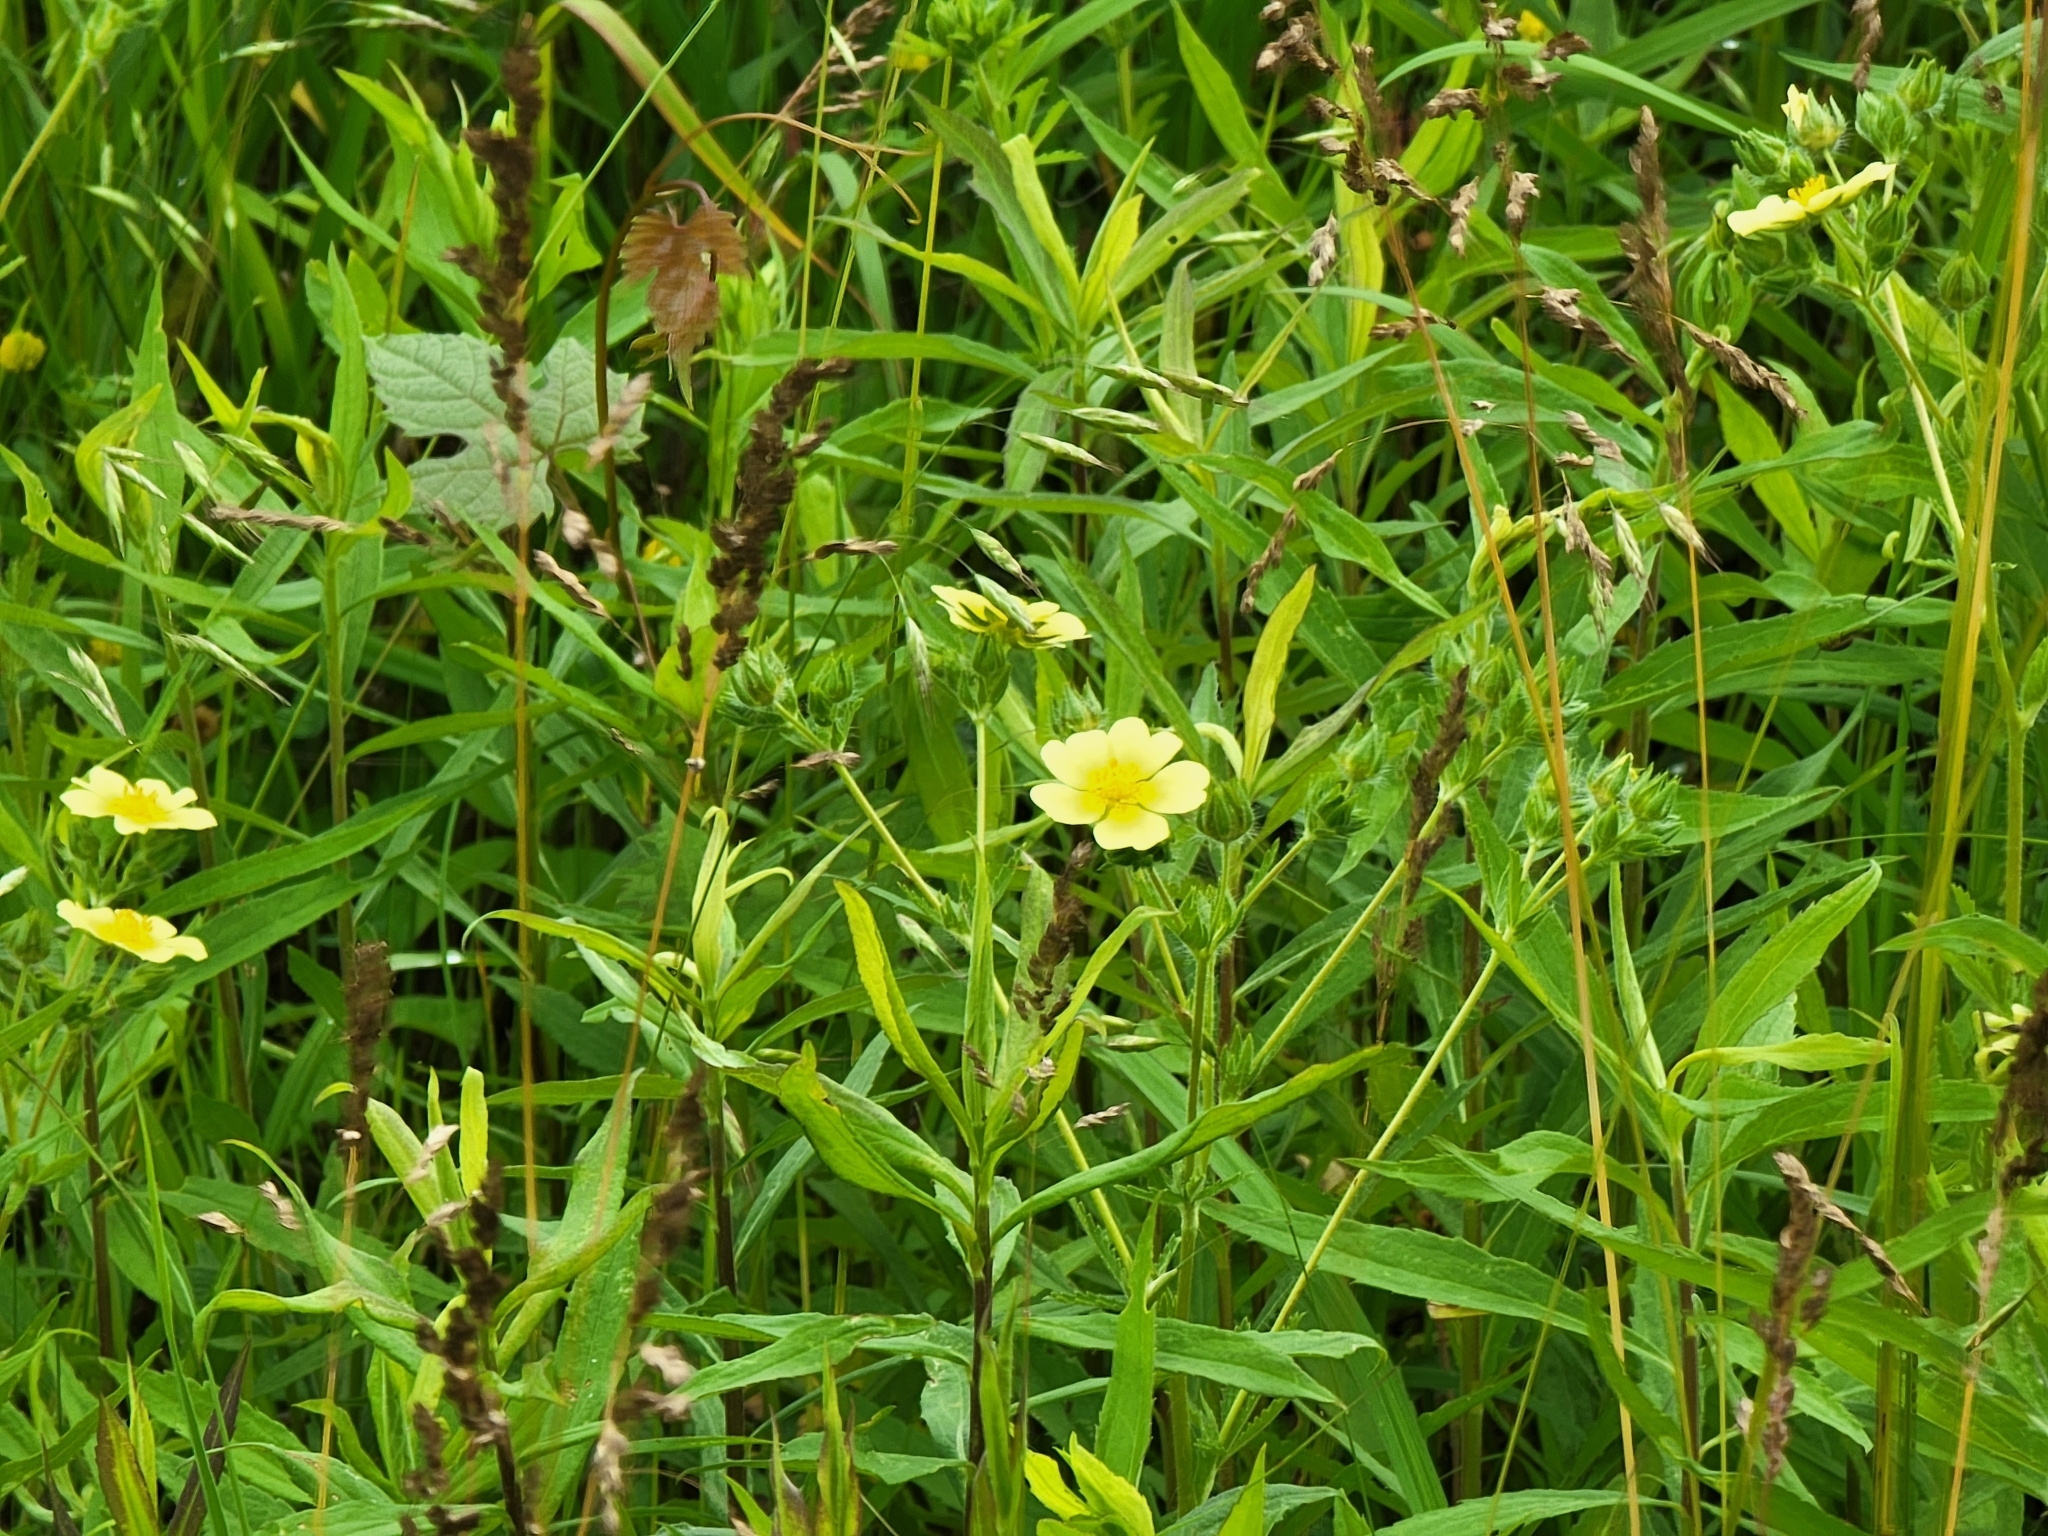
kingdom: Plantae
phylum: Tracheophyta
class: Magnoliopsida
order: Rosales
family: Rosaceae
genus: Potentilla
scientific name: Potentilla recta
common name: Sulphur cinquefoil
